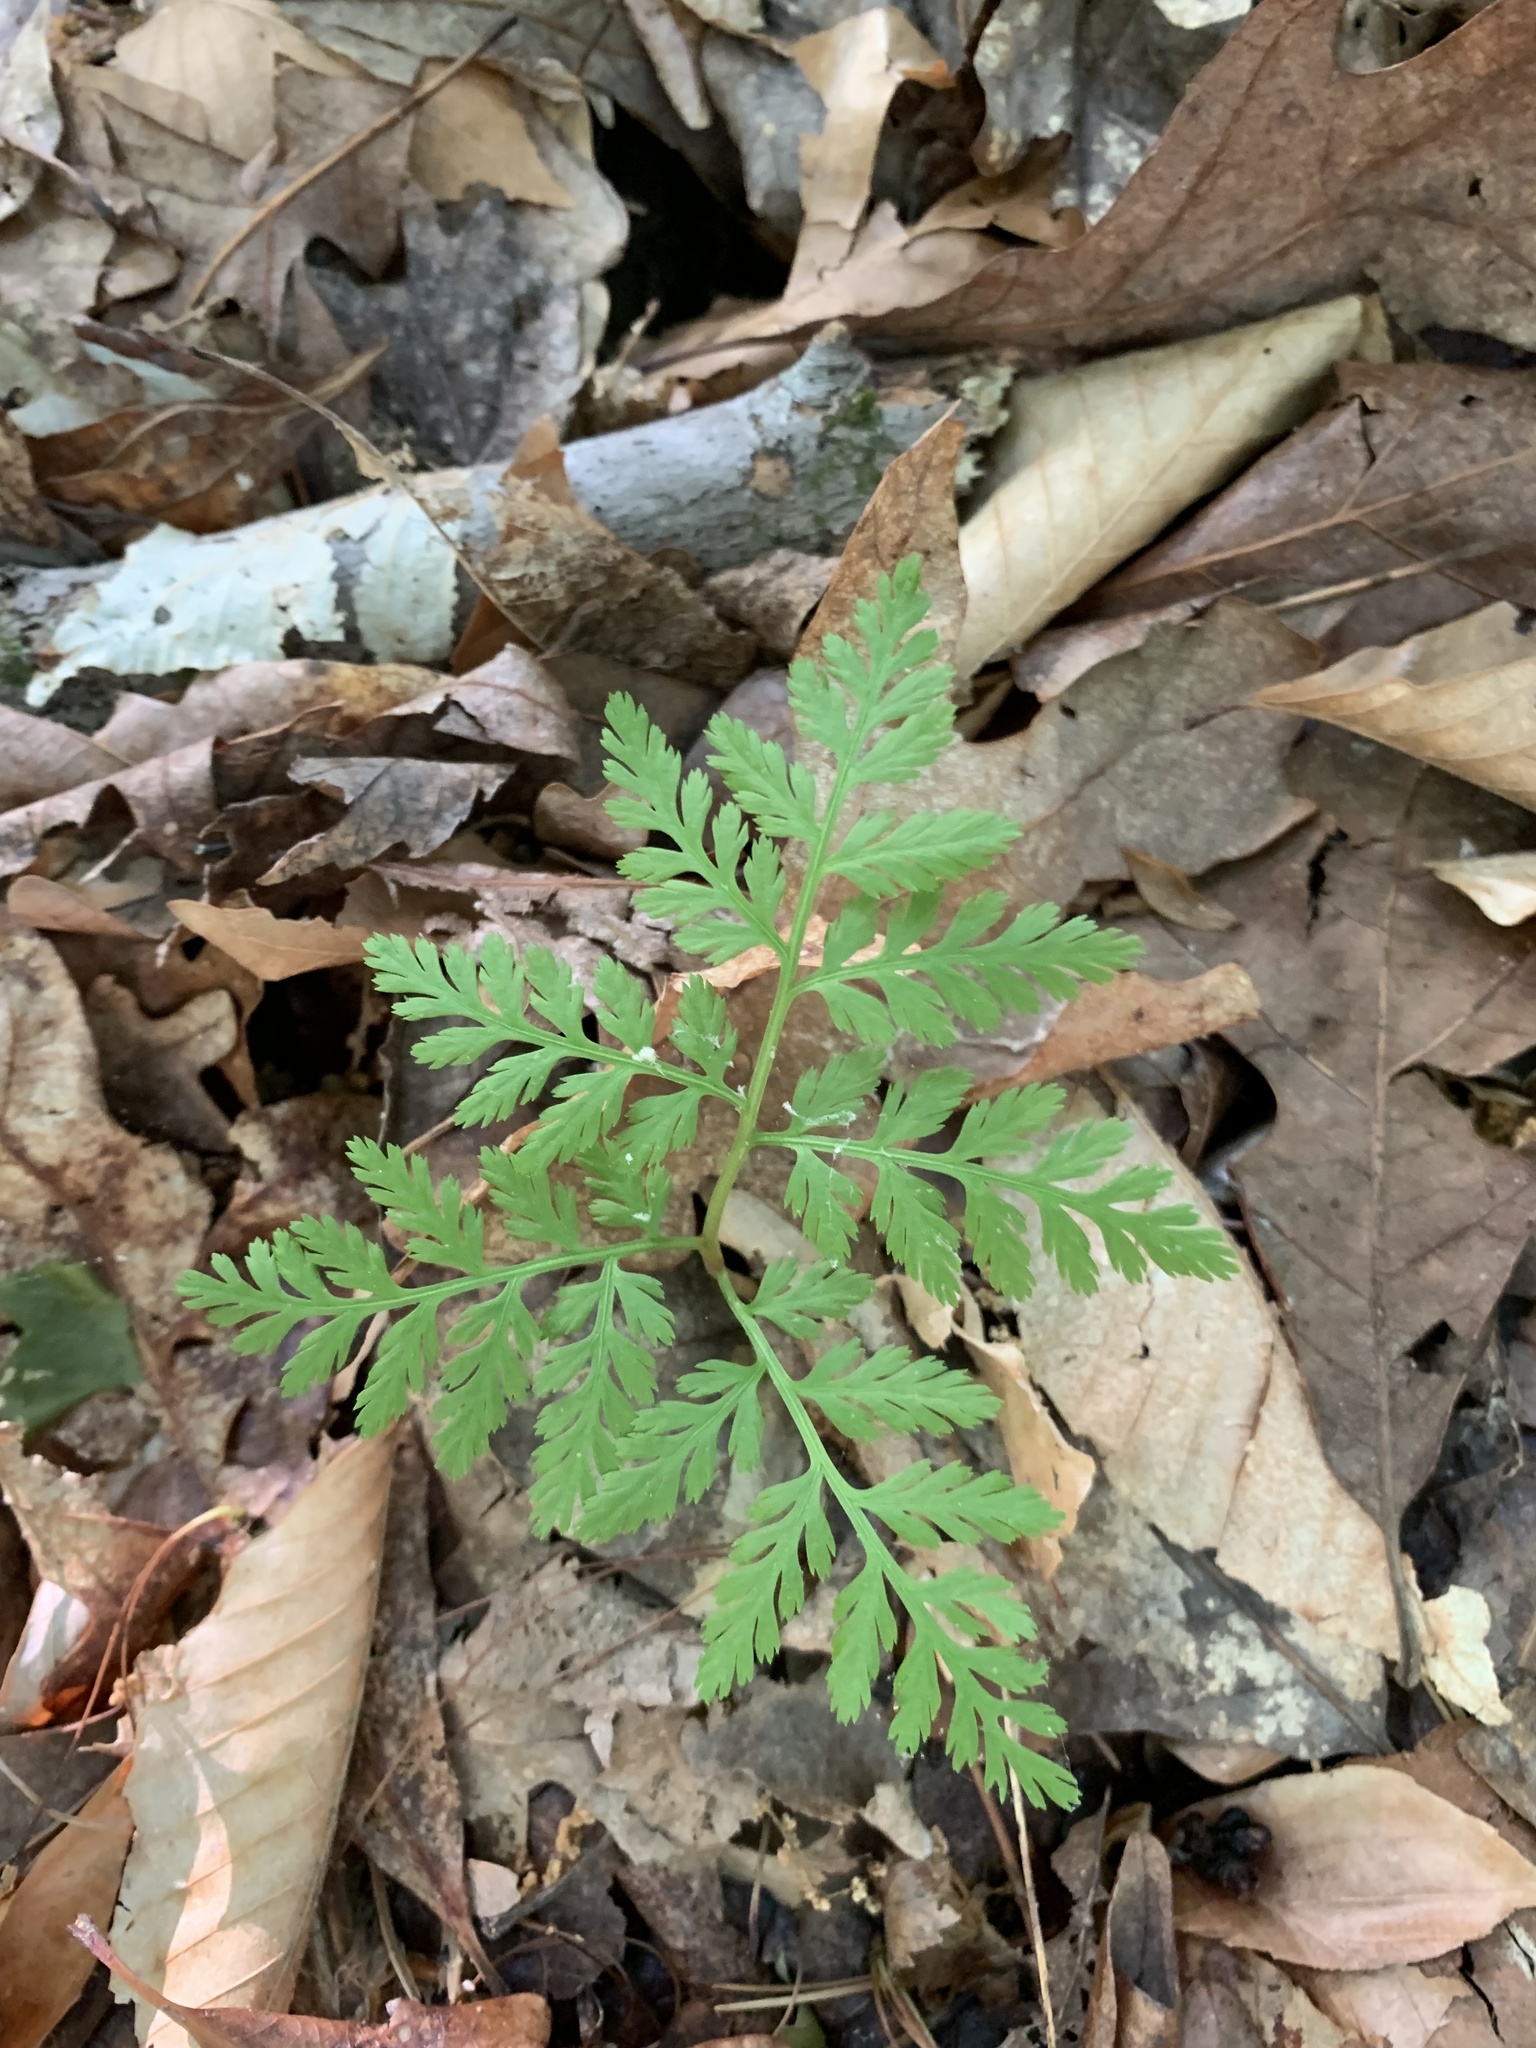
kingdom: Plantae
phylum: Tracheophyta
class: Polypodiopsida
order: Ophioglossales
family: Ophioglossaceae
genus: Botrypus
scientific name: Botrypus virginianus
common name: Common grapefern
